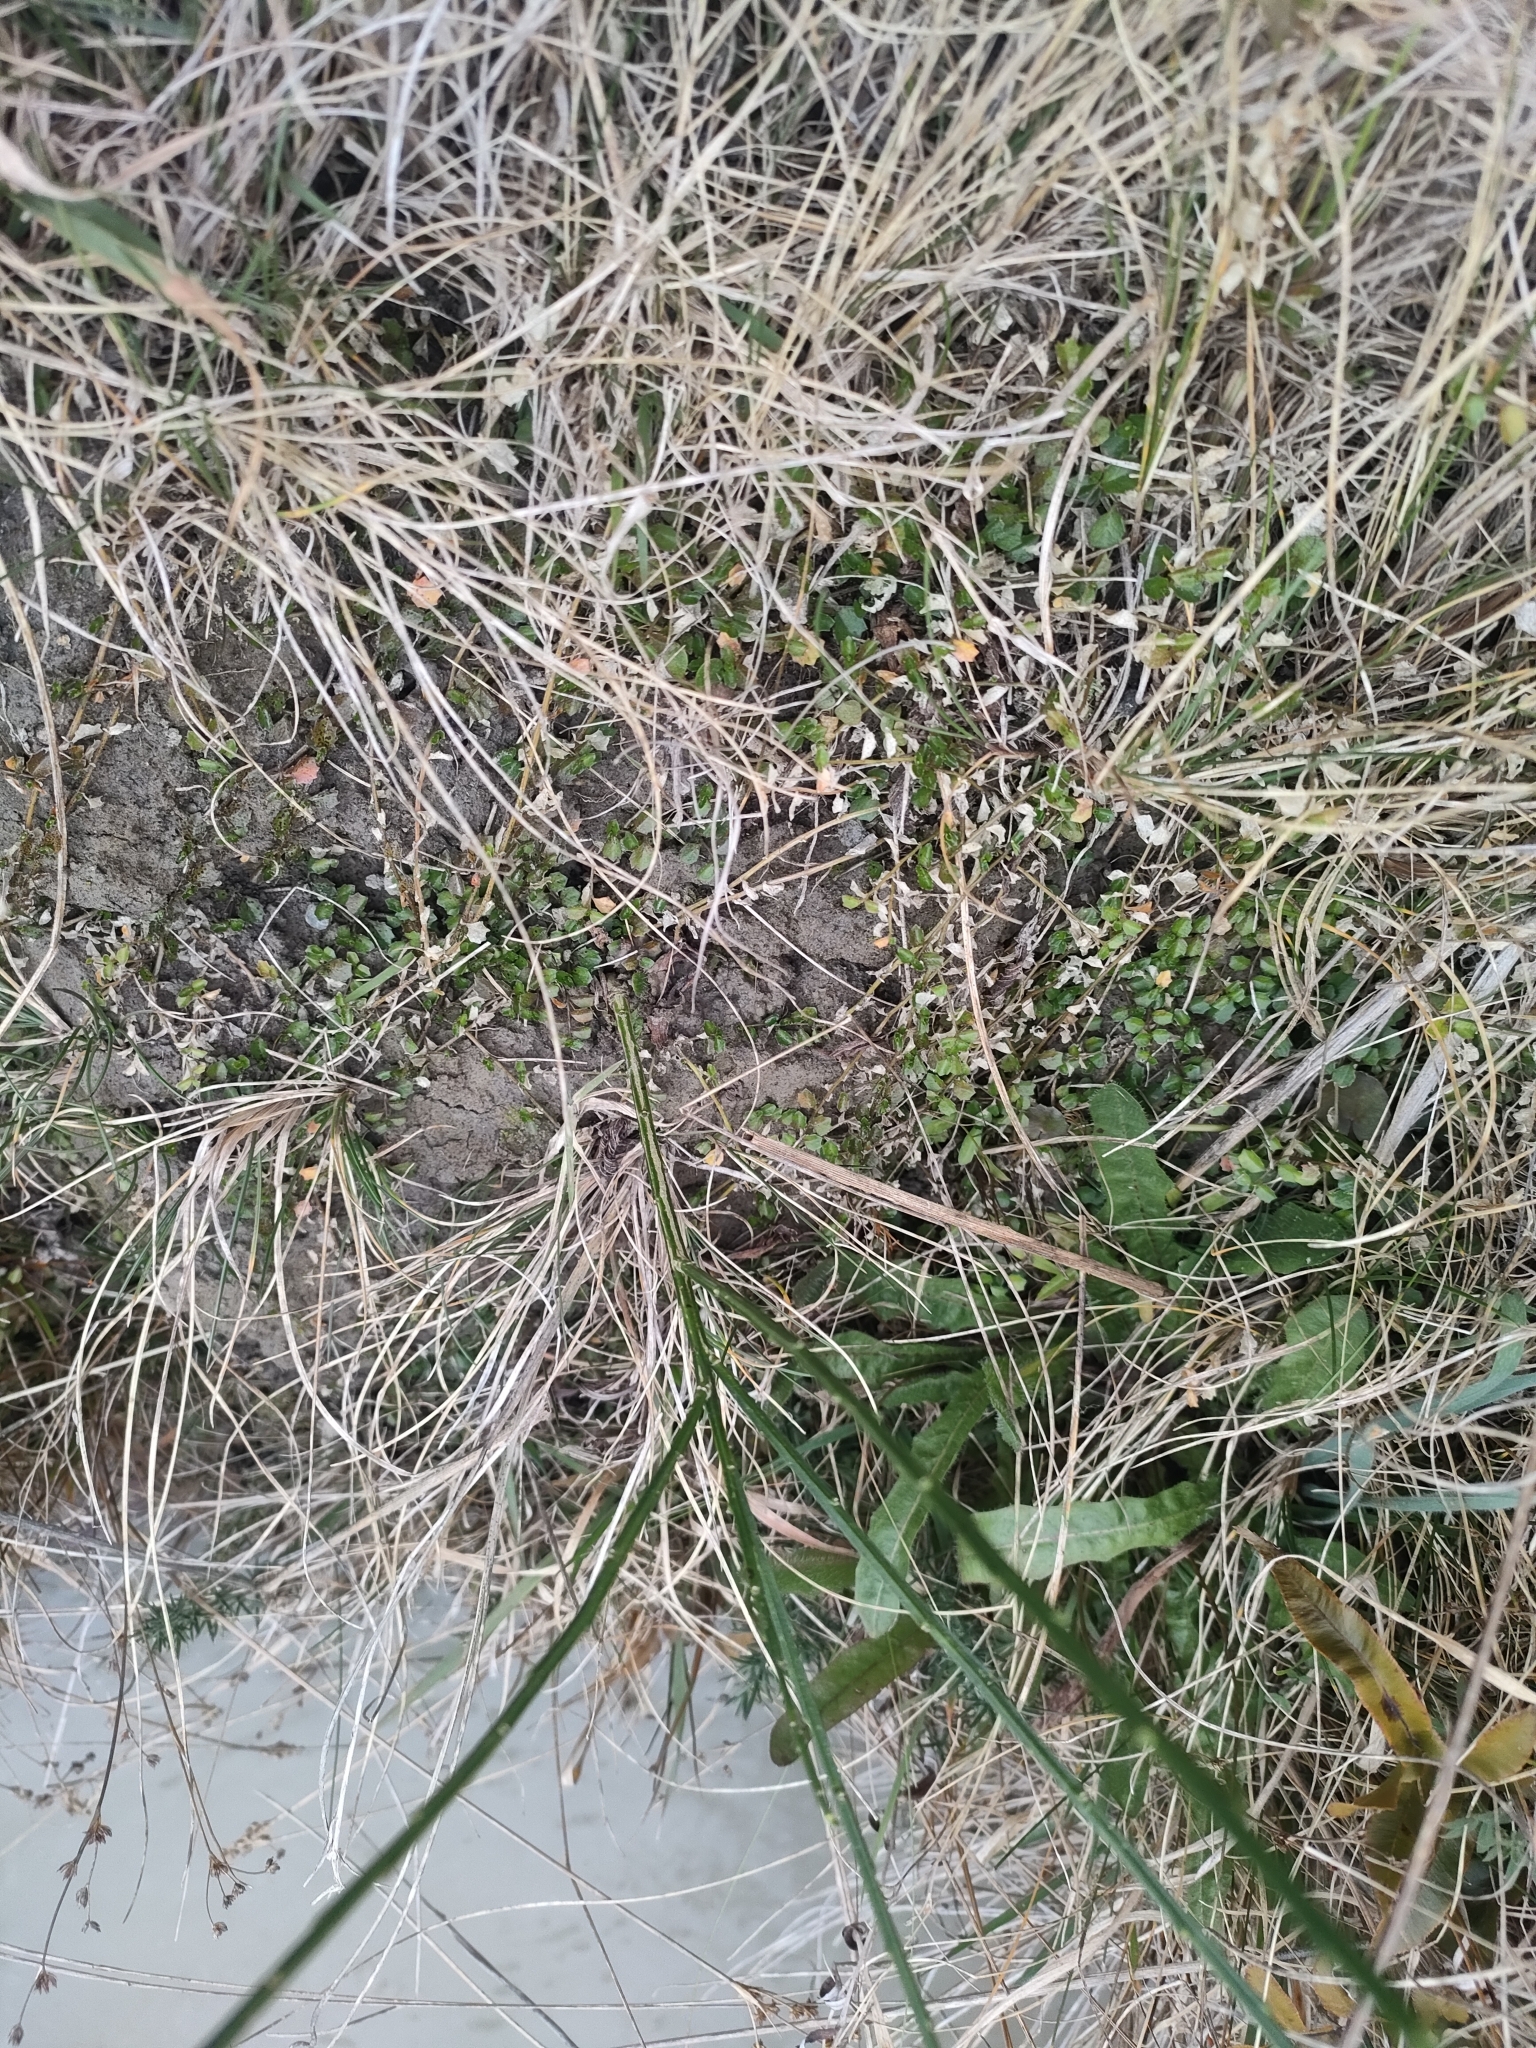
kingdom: Plantae
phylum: Tracheophyta
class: Magnoliopsida
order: Asterales
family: Campanulaceae
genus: Lobelia
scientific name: Lobelia angulata
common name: Lawn lobelia
